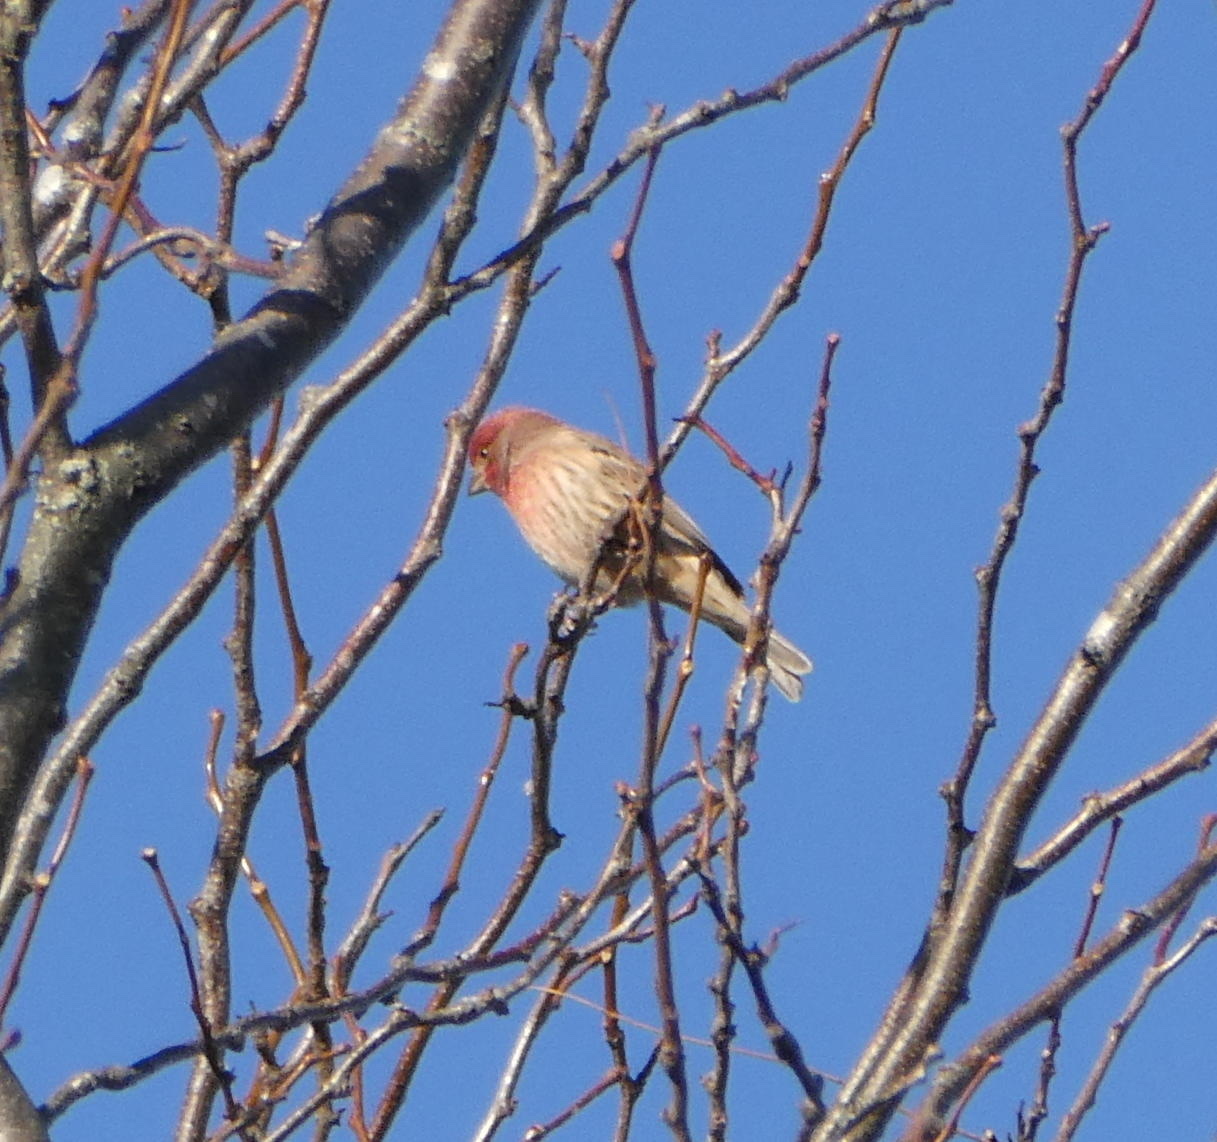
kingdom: Animalia
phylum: Chordata
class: Aves
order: Passeriformes
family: Fringillidae
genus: Haemorhous
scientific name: Haemorhous mexicanus
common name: House finch
